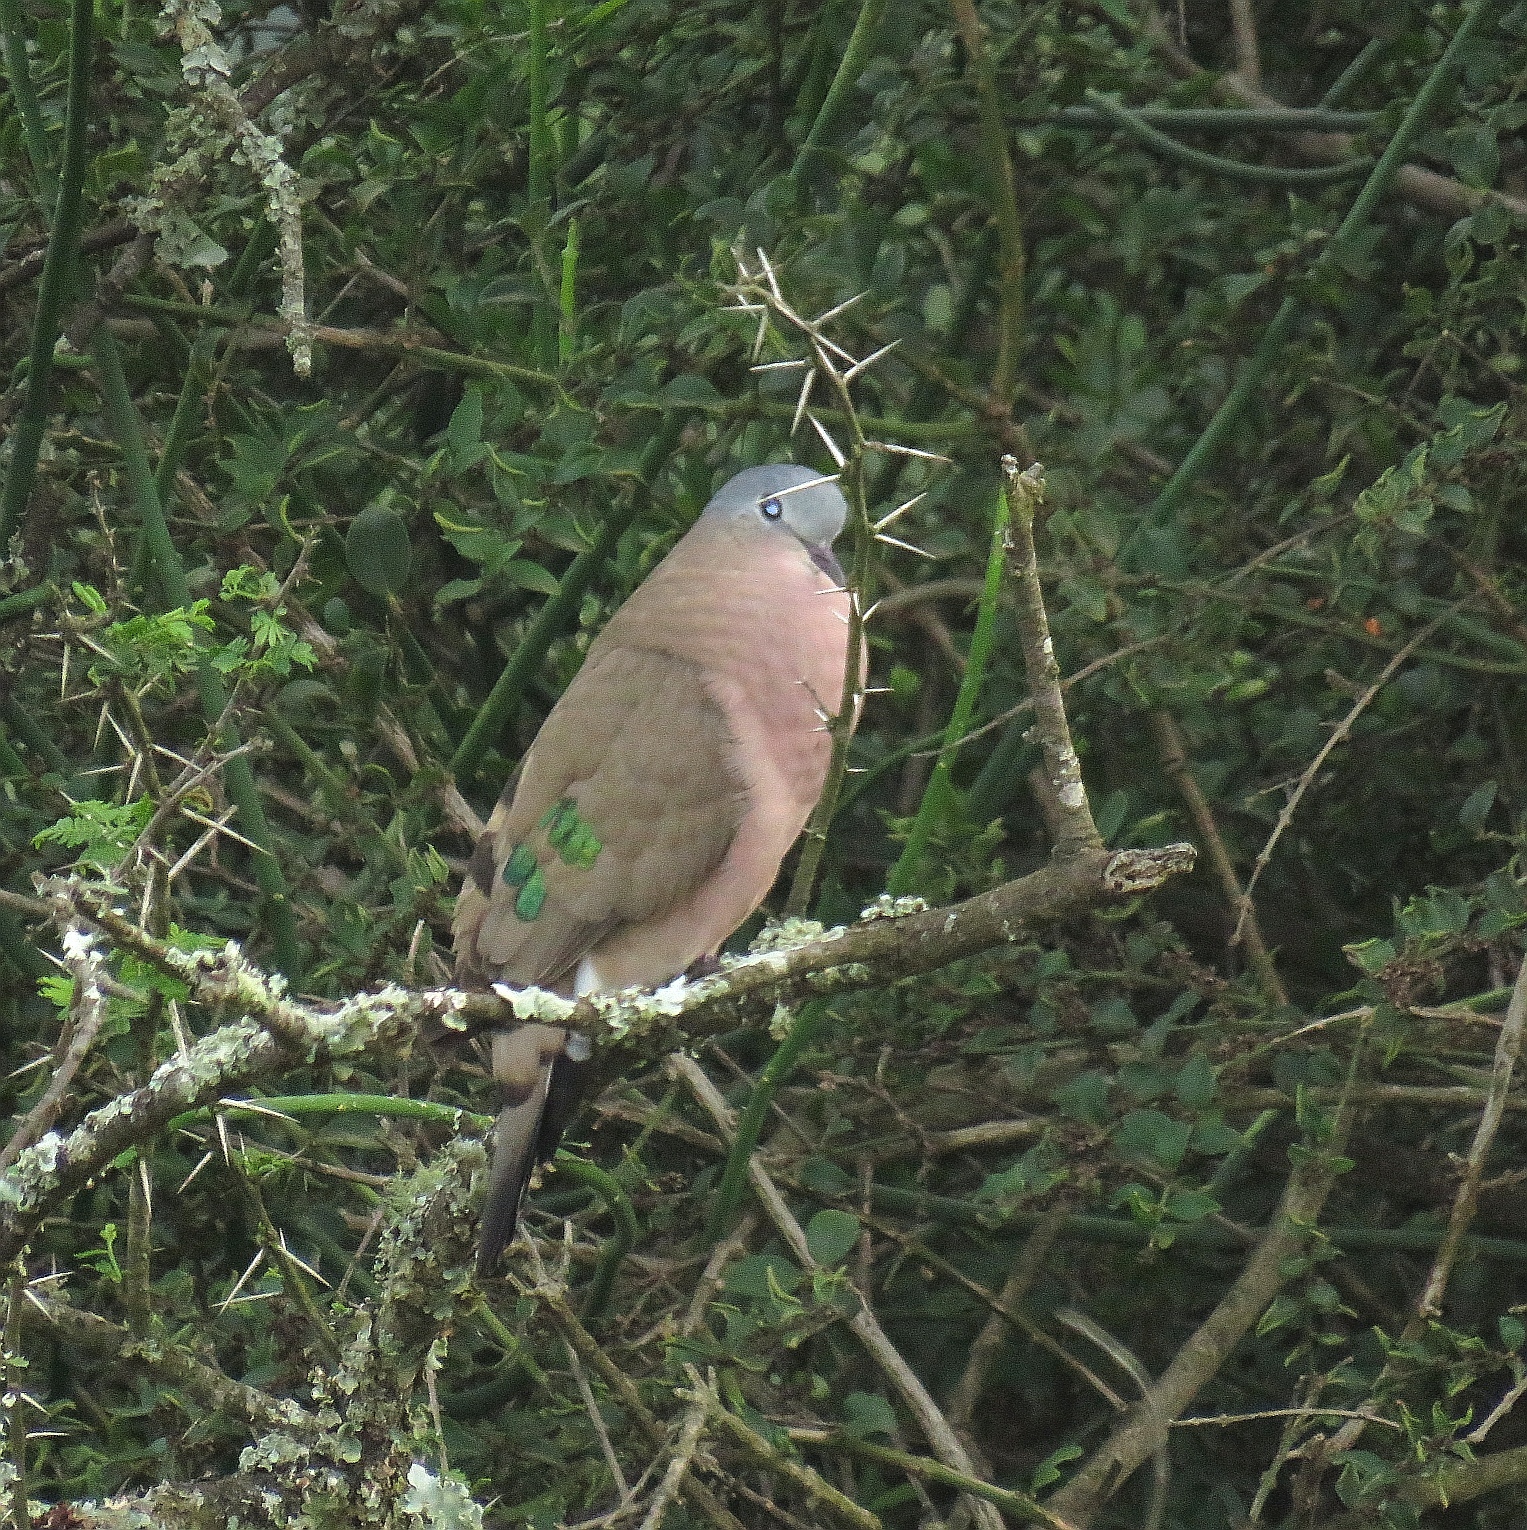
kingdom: Animalia
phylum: Chordata
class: Aves
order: Columbiformes
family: Columbidae
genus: Turtur
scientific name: Turtur chalcospilos
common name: Emerald-spotted wood dove
